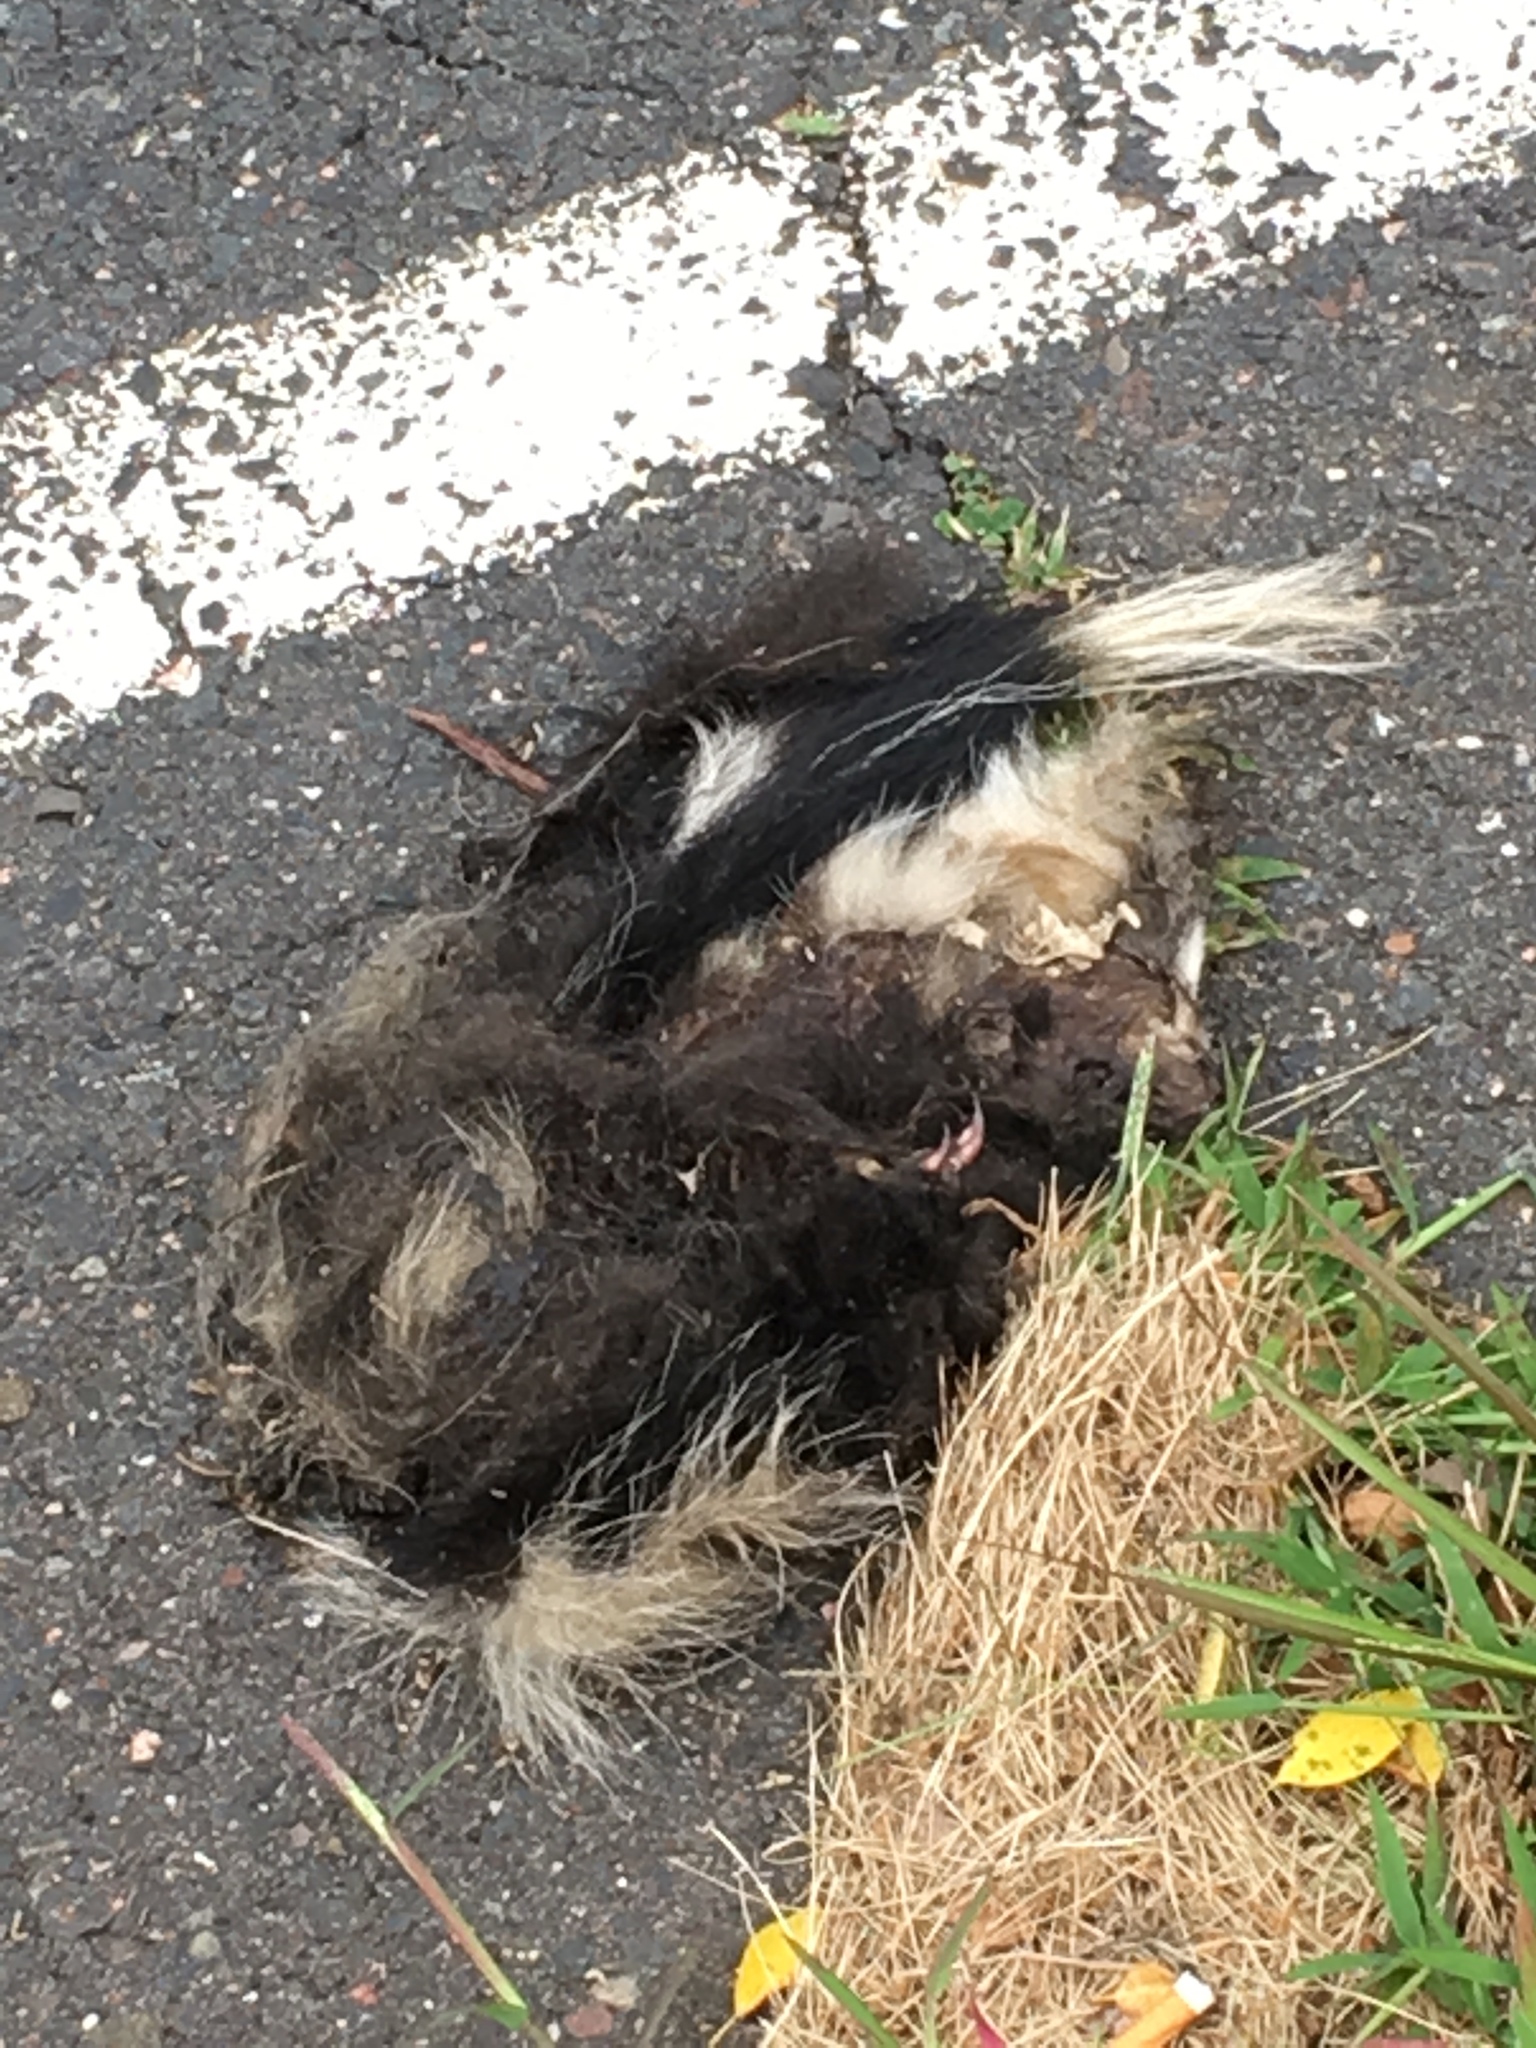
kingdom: Animalia
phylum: Chordata
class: Mammalia
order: Carnivora
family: Mephitidae
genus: Mephitis
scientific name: Mephitis mephitis
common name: Striped skunk
